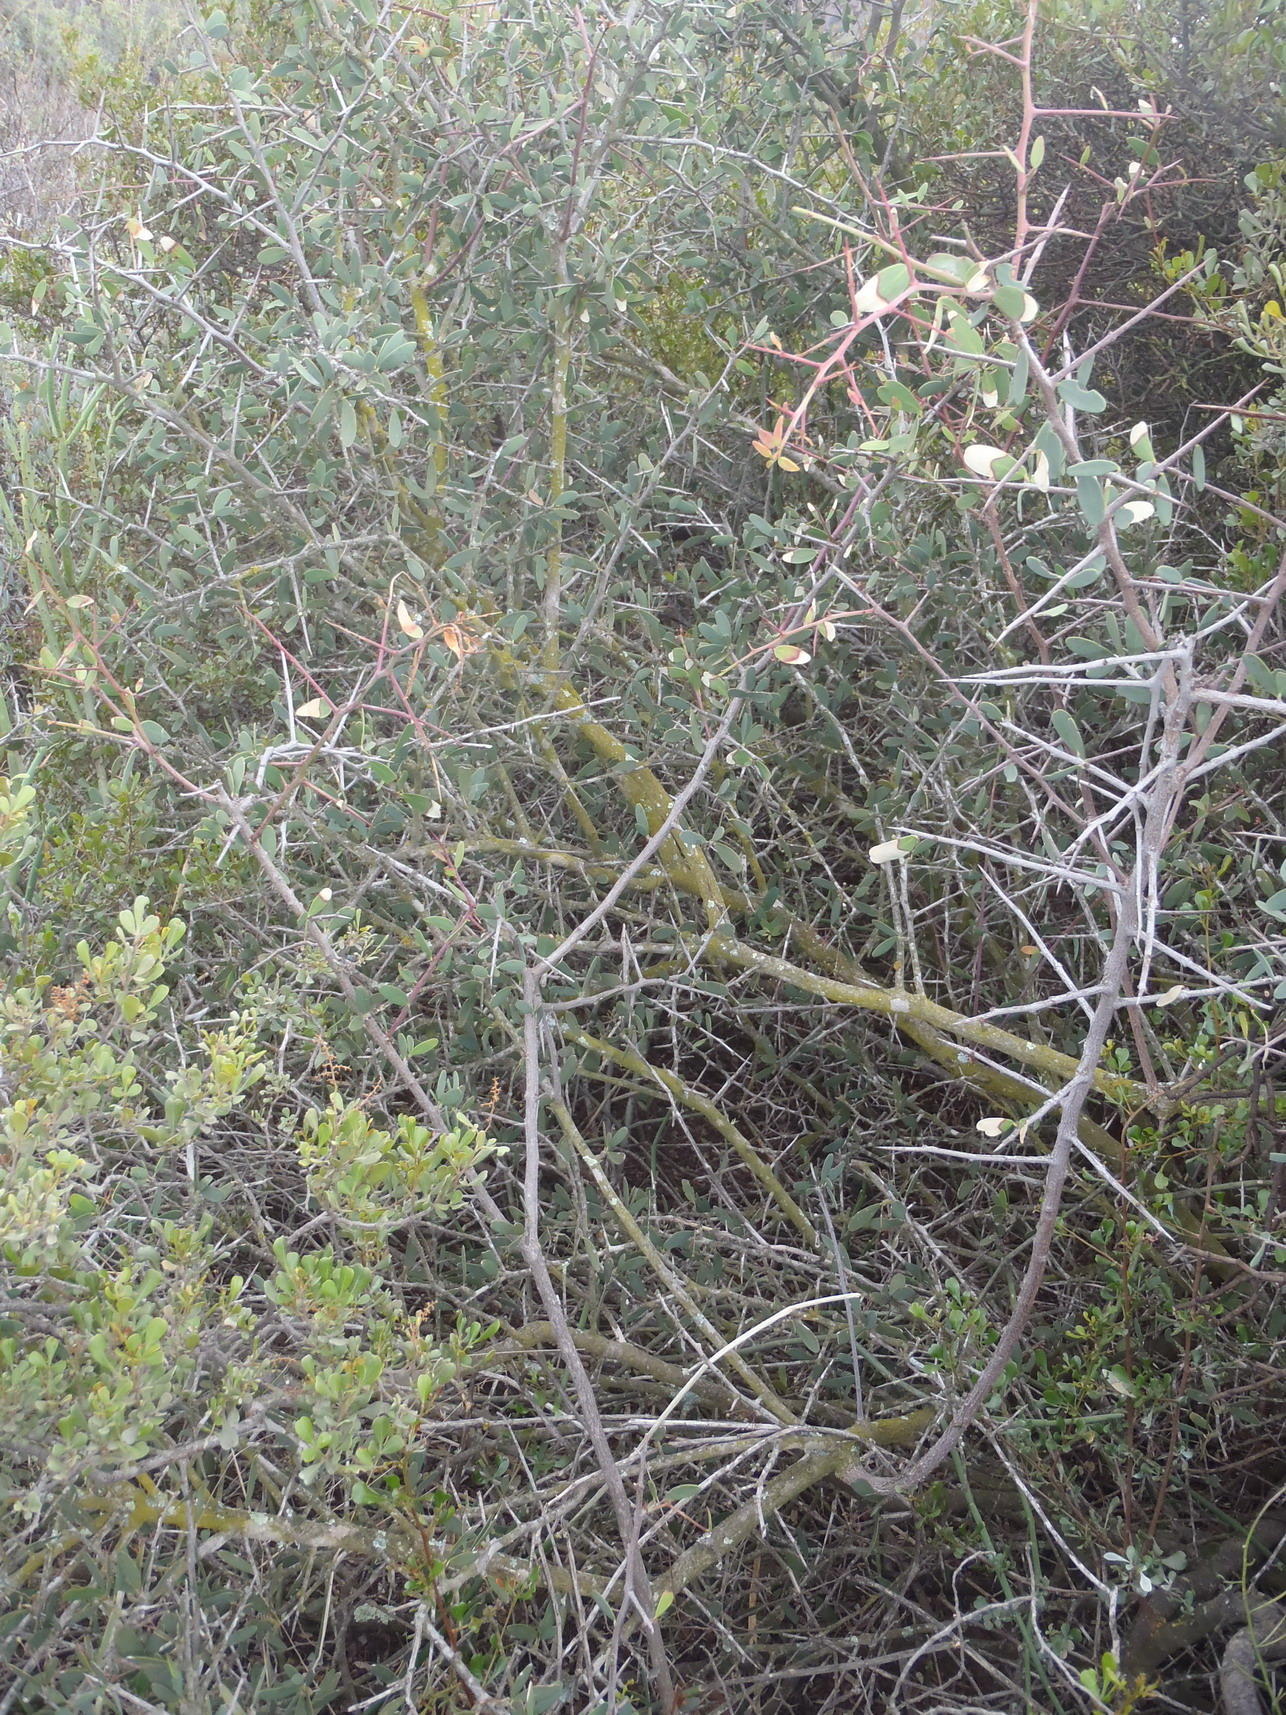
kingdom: Plantae
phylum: Tracheophyta
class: Magnoliopsida
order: Celastrales
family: Celastraceae
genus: Gloveria
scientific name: Gloveria integrifolia
